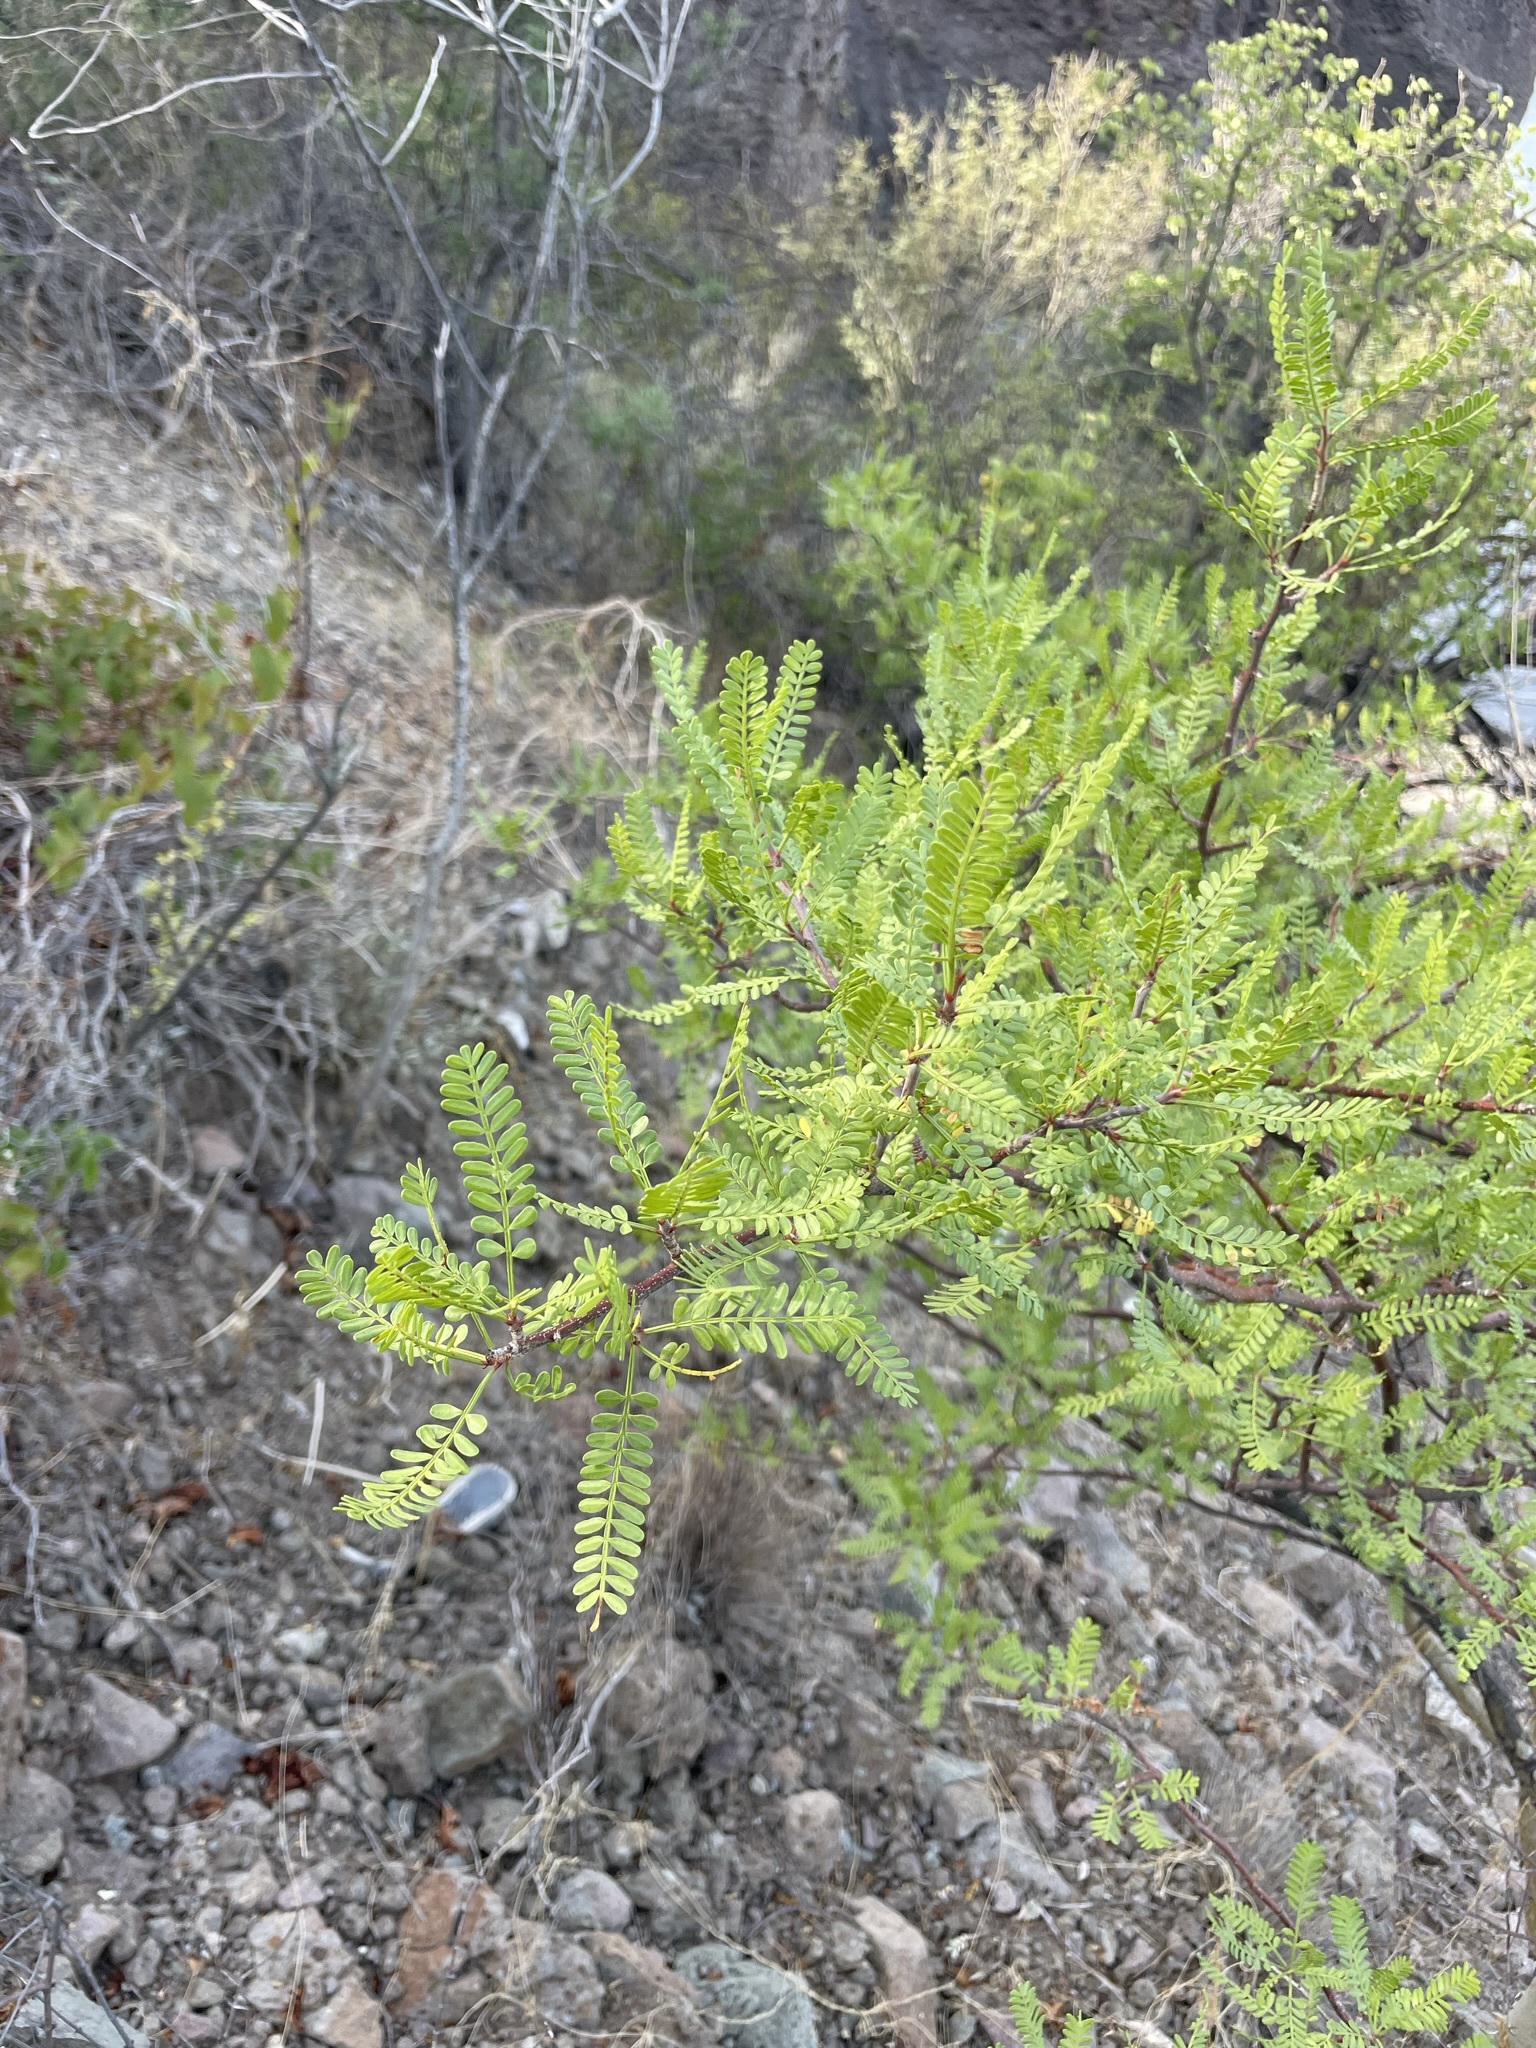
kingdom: Plantae
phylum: Tracheophyta
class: Magnoliopsida
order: Sapindales
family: Burseraceae
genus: Bursera
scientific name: Bursera microphylla
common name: Elephant tree
